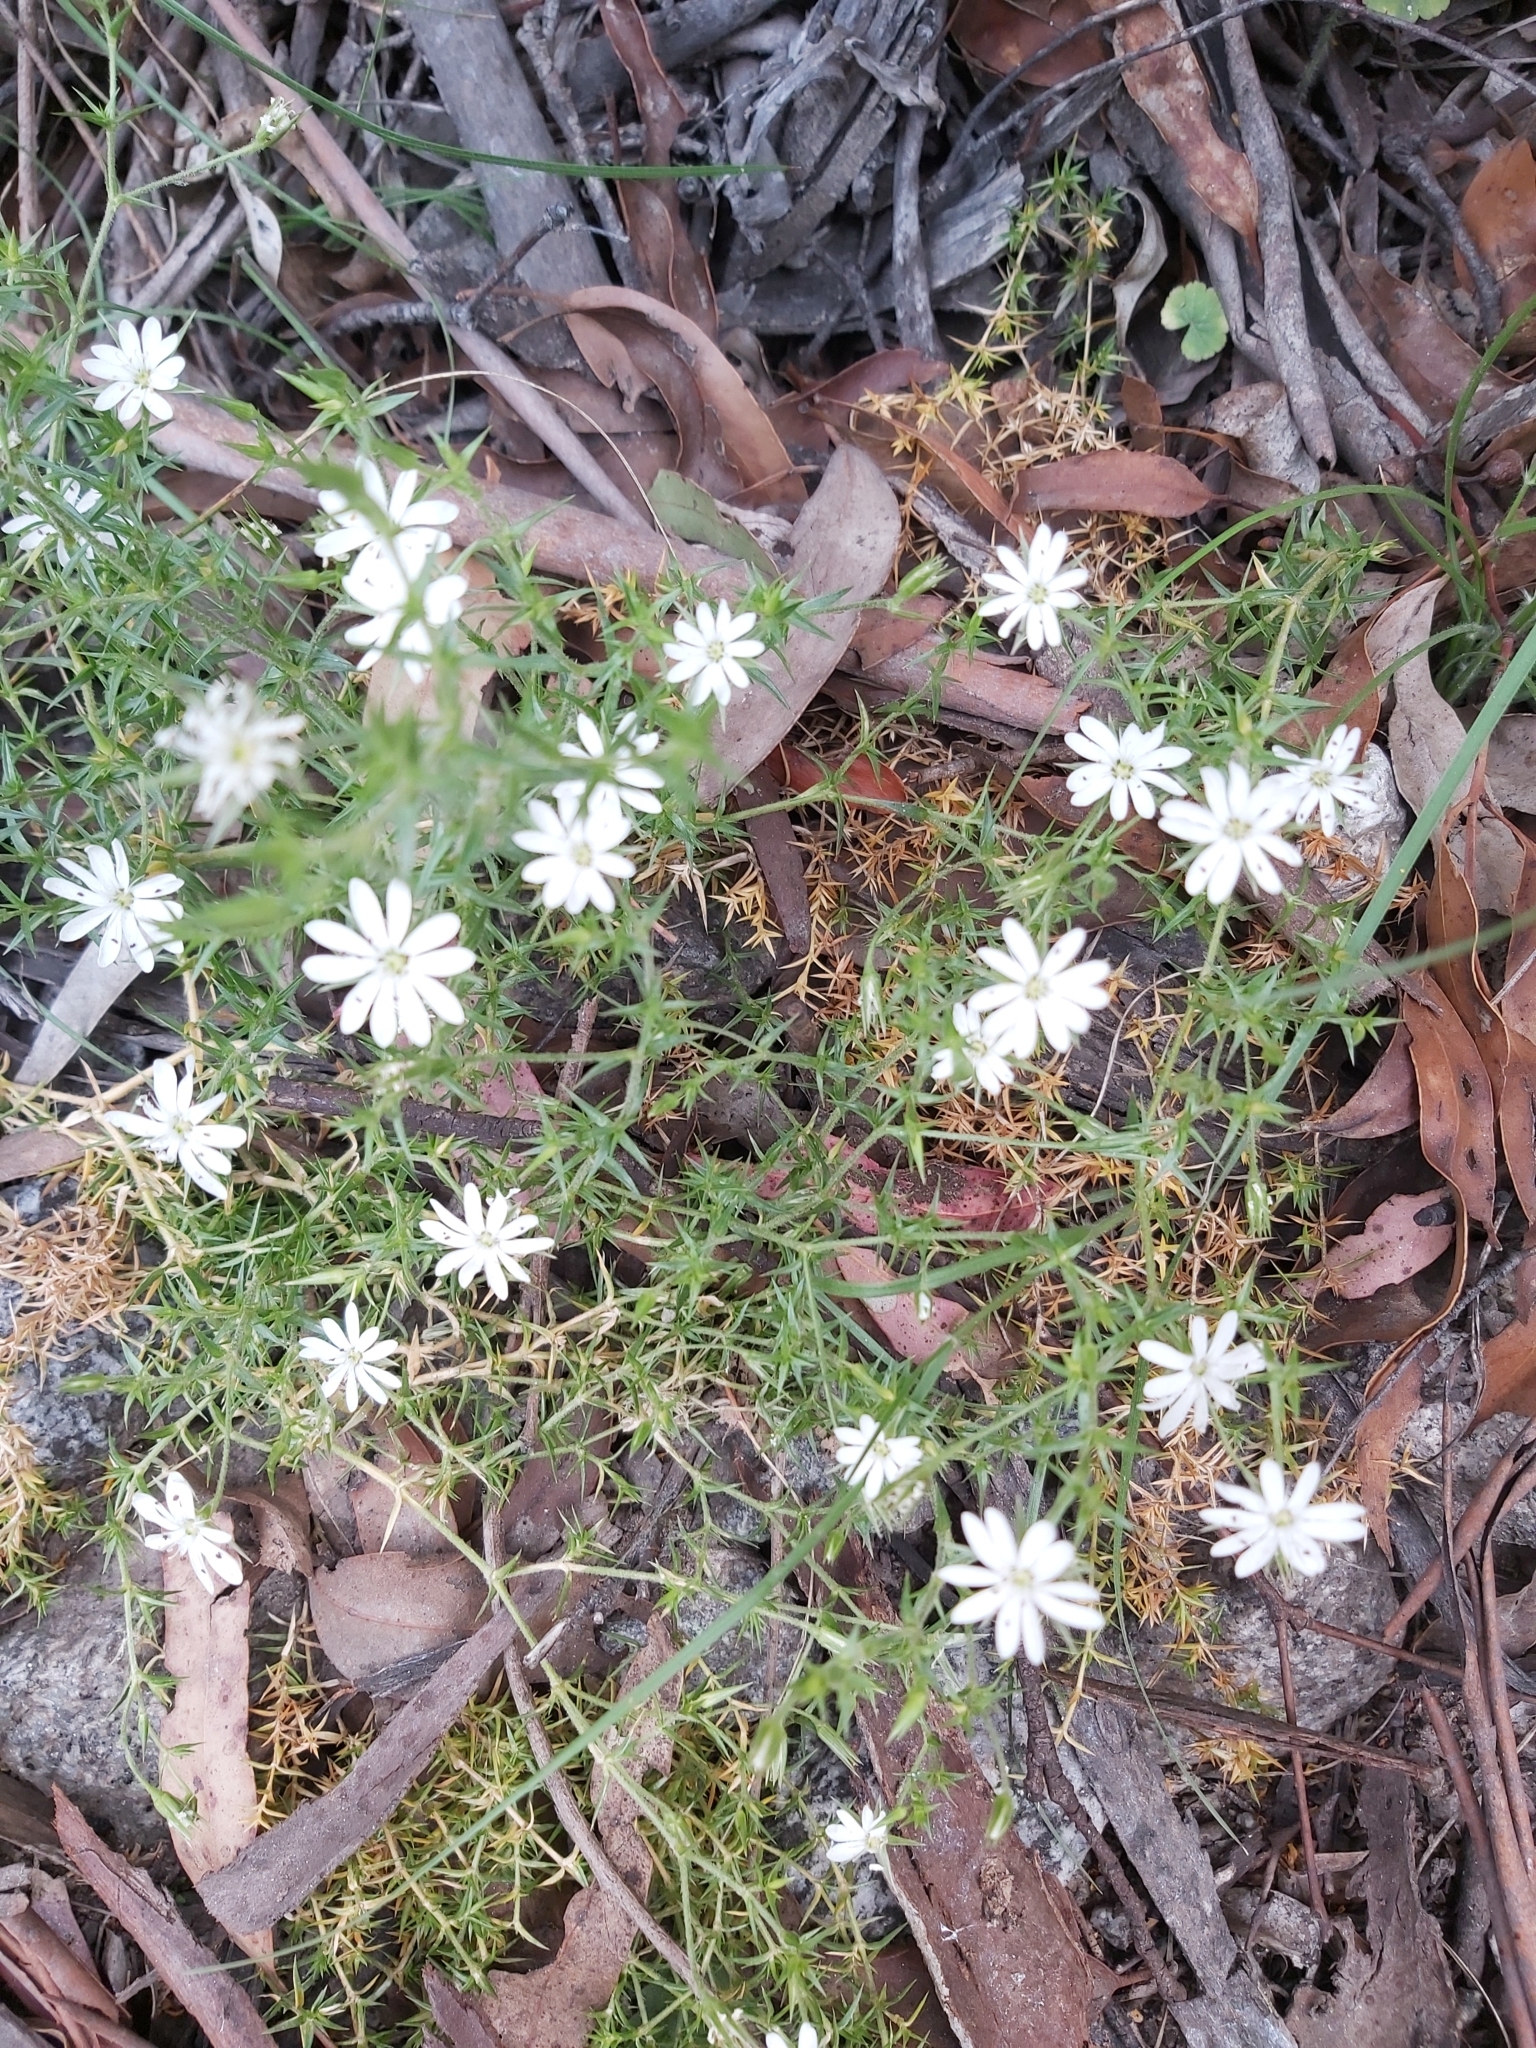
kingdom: Plantae
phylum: Tracheophyta
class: Magnoliopsida
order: Caryophyllales
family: Caryophyllaceae
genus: Stellaria
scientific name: Stellaria pungens
